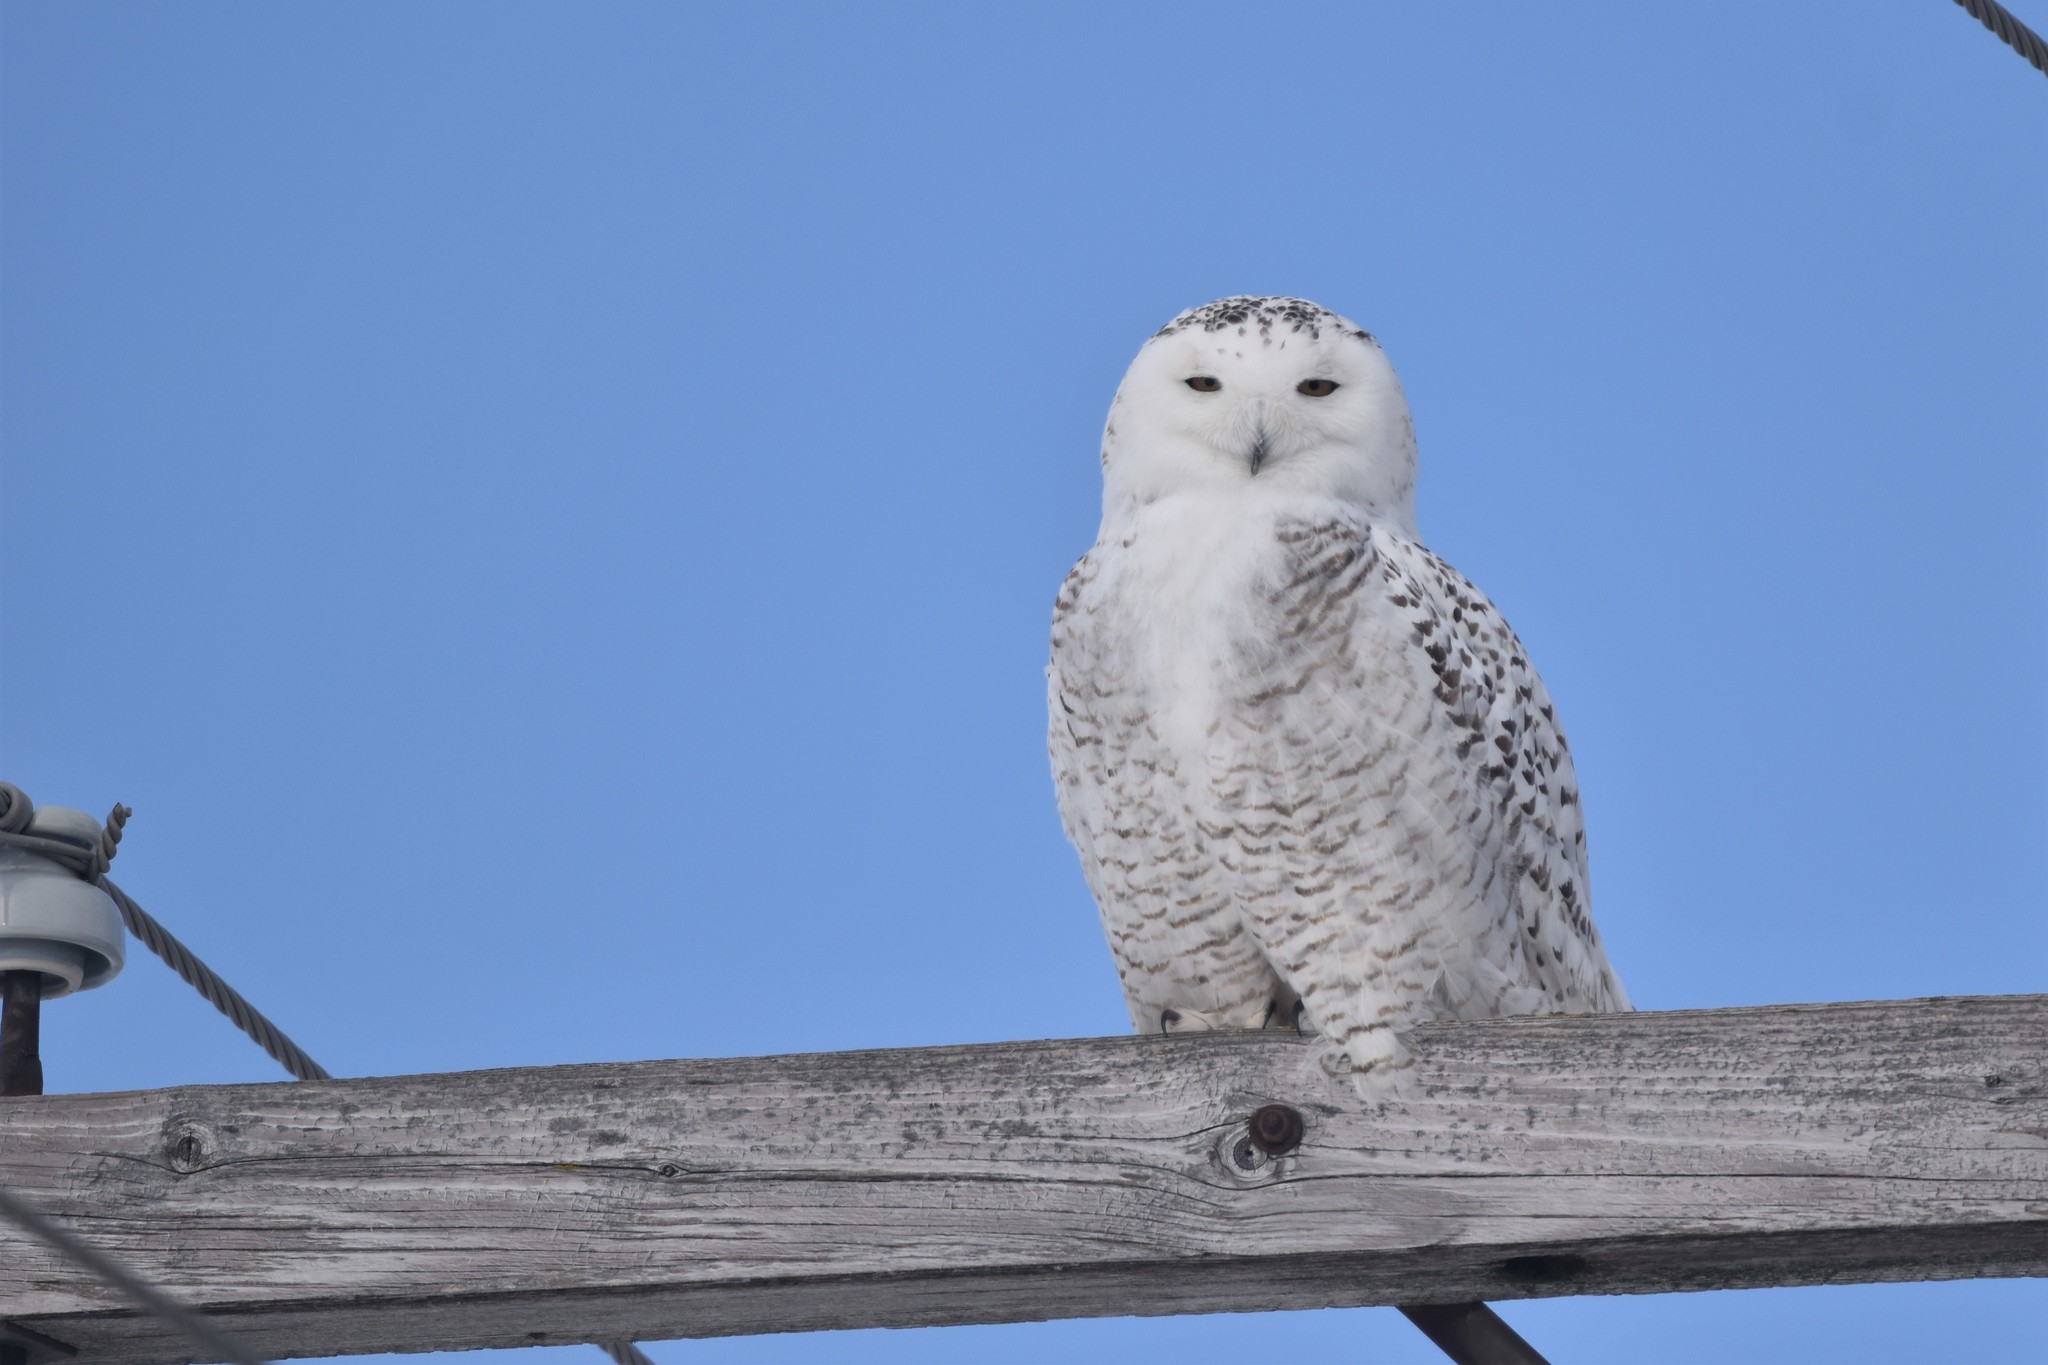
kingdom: Animalia
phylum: Chordata
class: Aves
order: Strigiformes
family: Strigidae
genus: Bubo
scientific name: Bubo scandiacus
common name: Snowy owl
